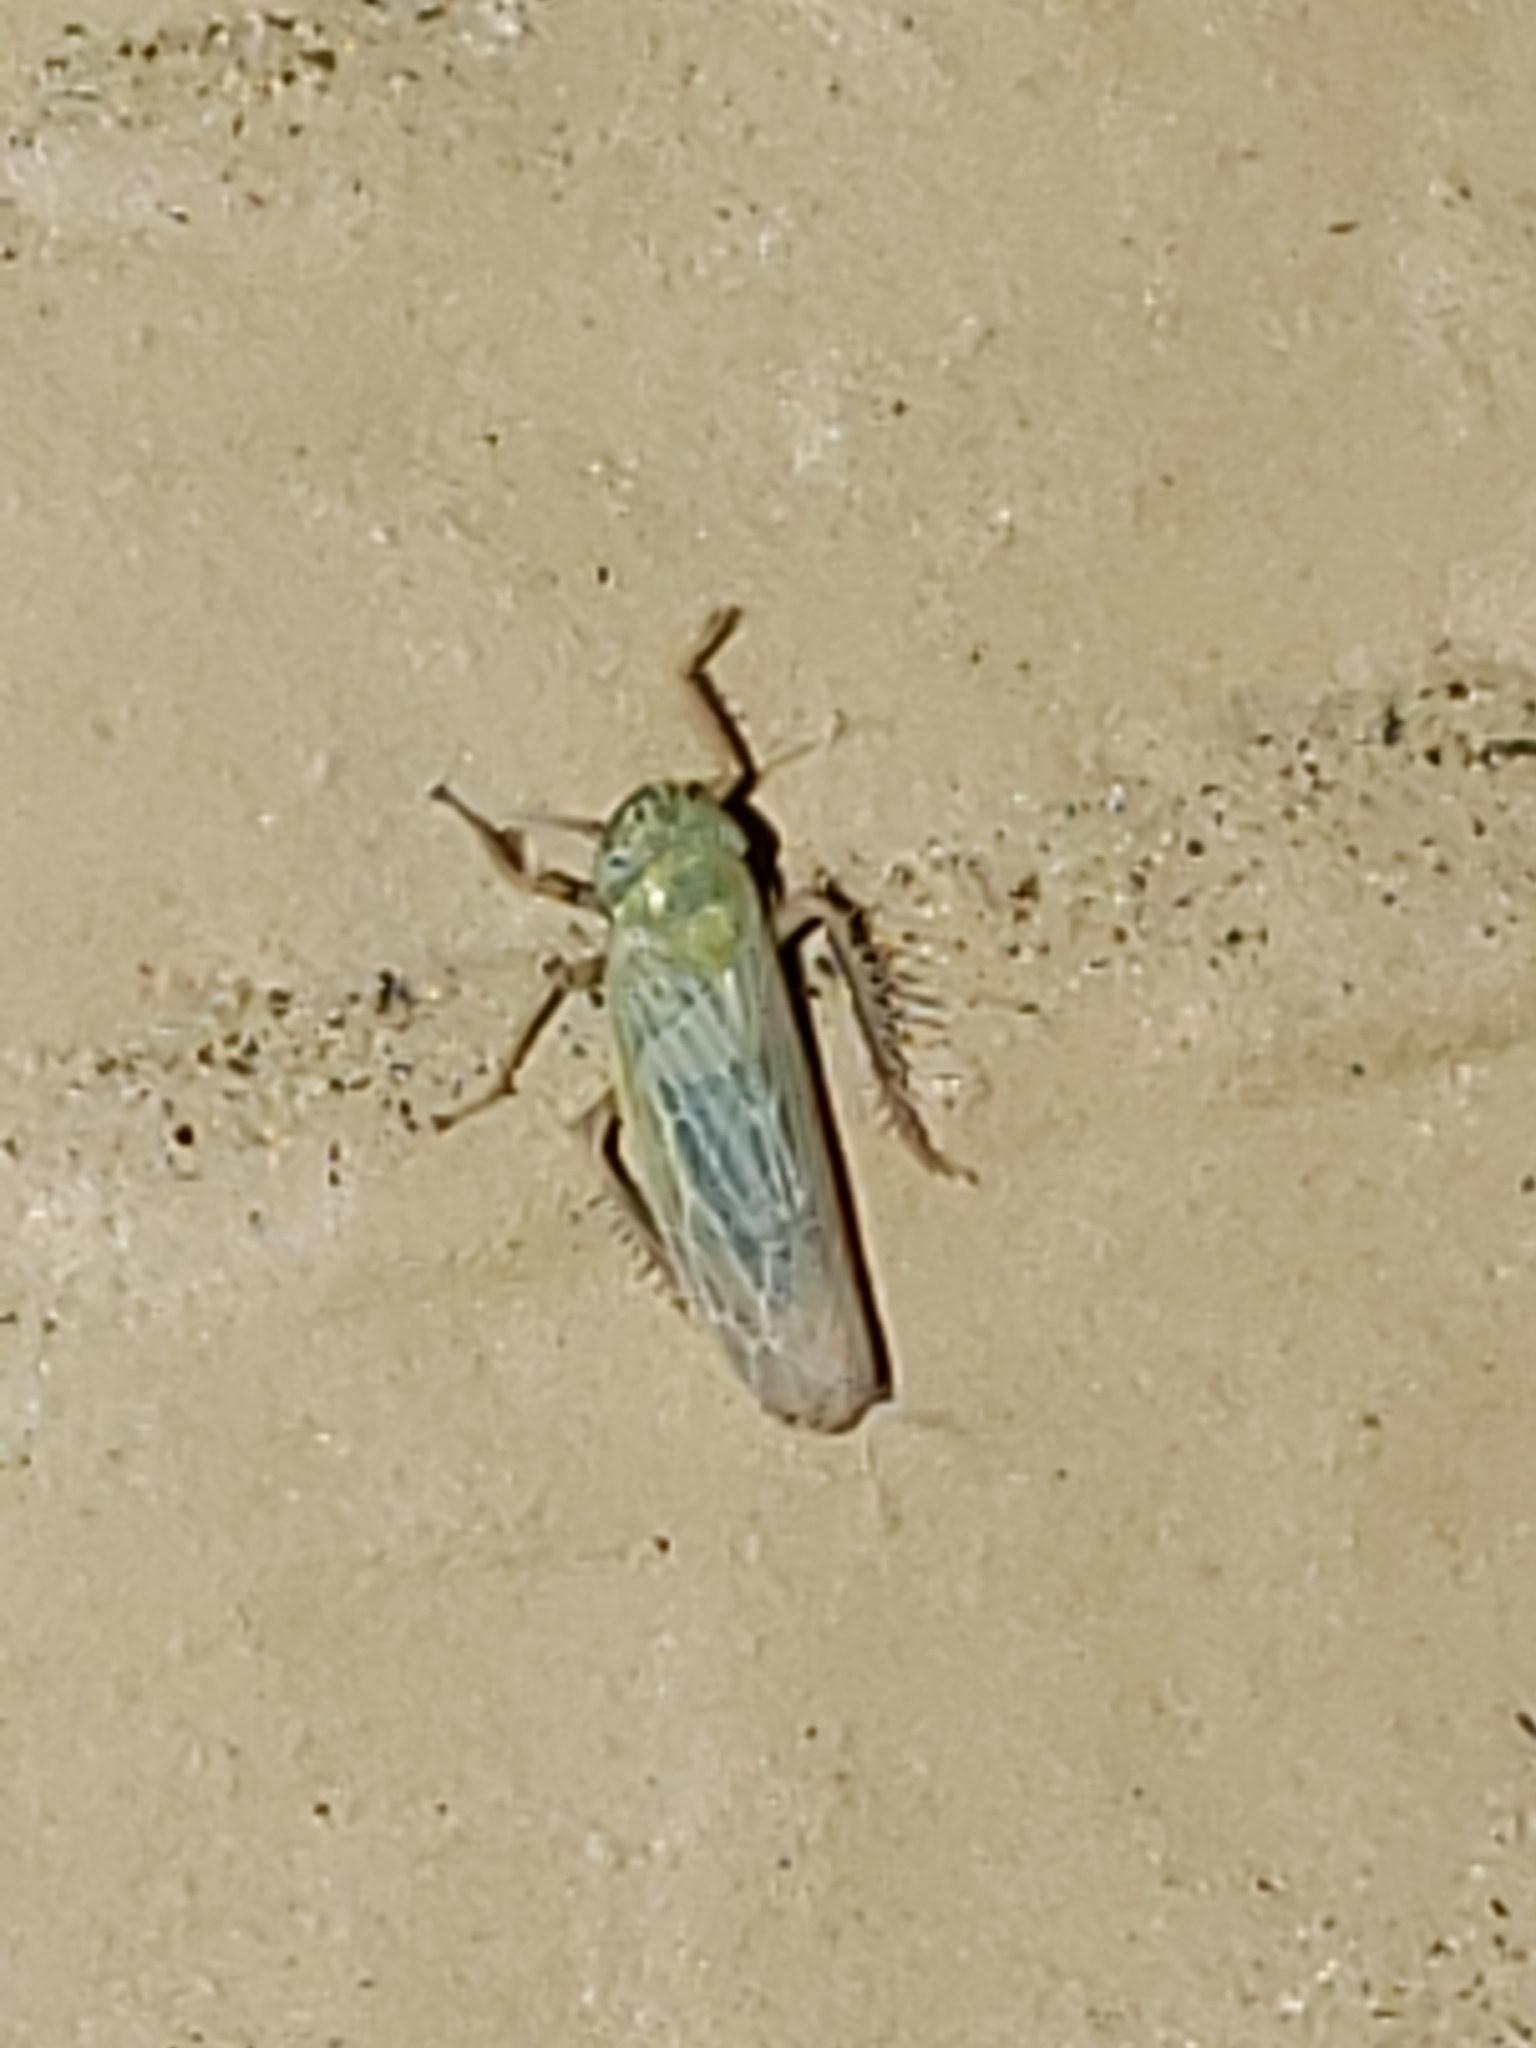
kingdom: Animalia
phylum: Arthropoda
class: Insecta
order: Hemiptera
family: Cicadellidae
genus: Graminella
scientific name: Graminella nigrifrons
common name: Blackfaced leafhopper
